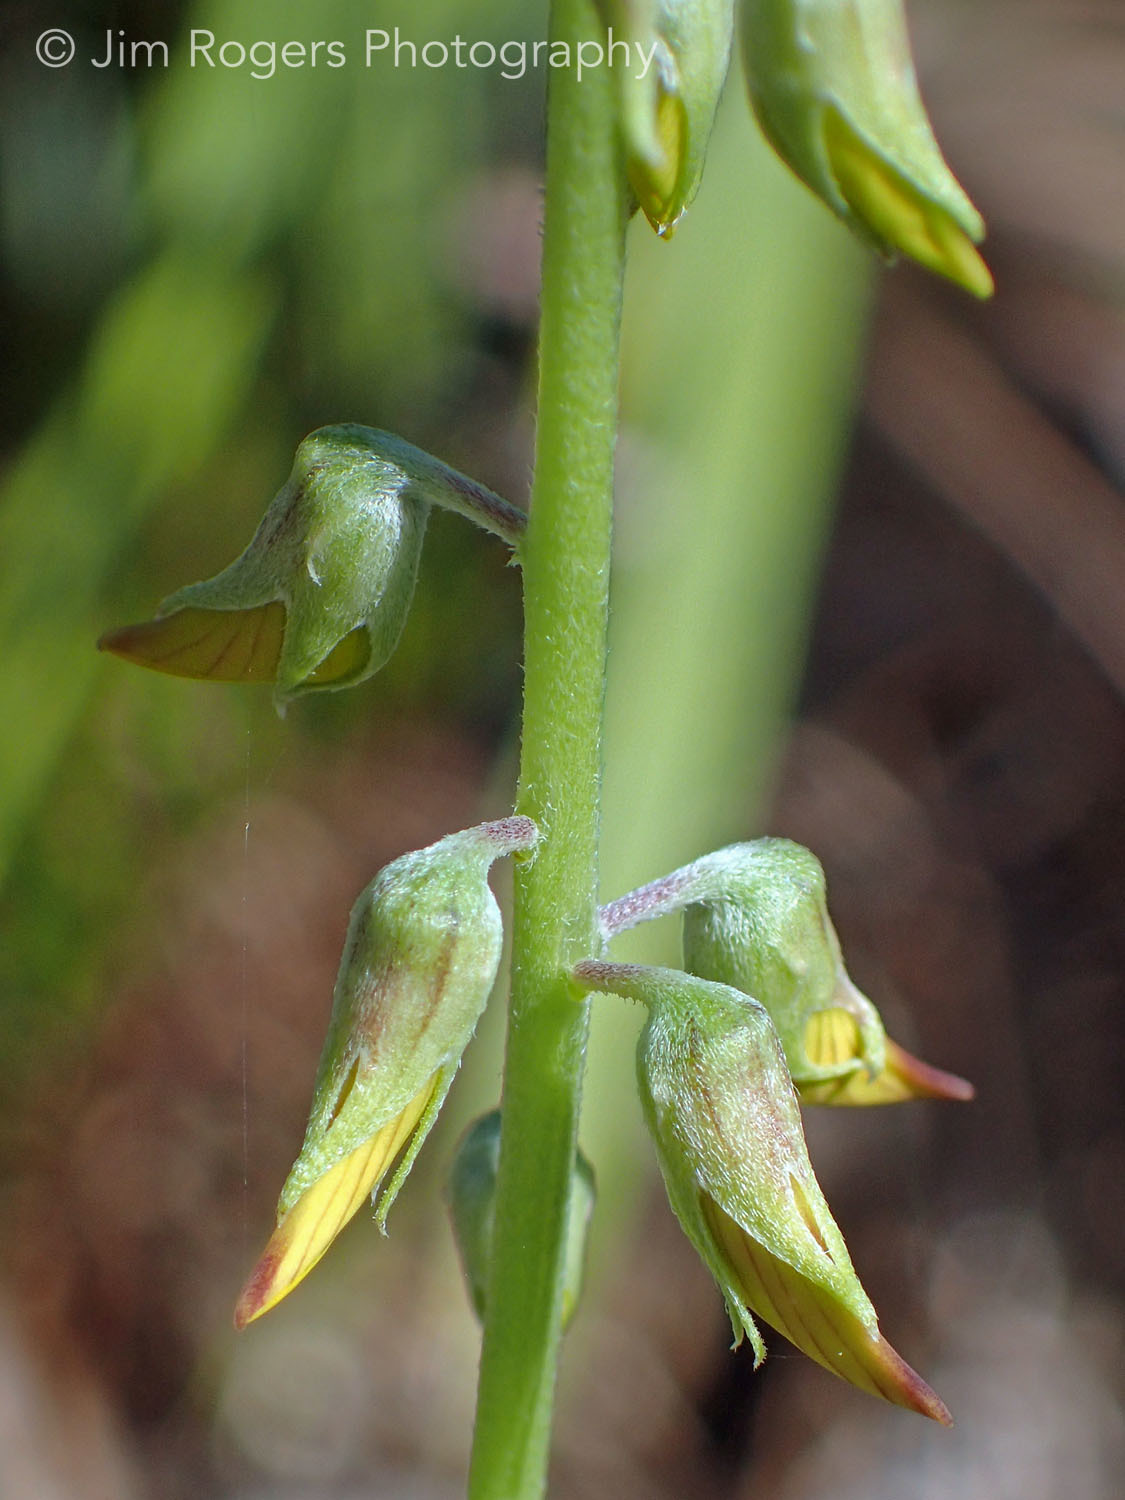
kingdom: Plantae
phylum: Tracheophyta
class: Magnoliopsida
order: Fabales
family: Fabaceae
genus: Crotalaria
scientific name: Crotalaria pallida
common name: Smooth rattlebox
